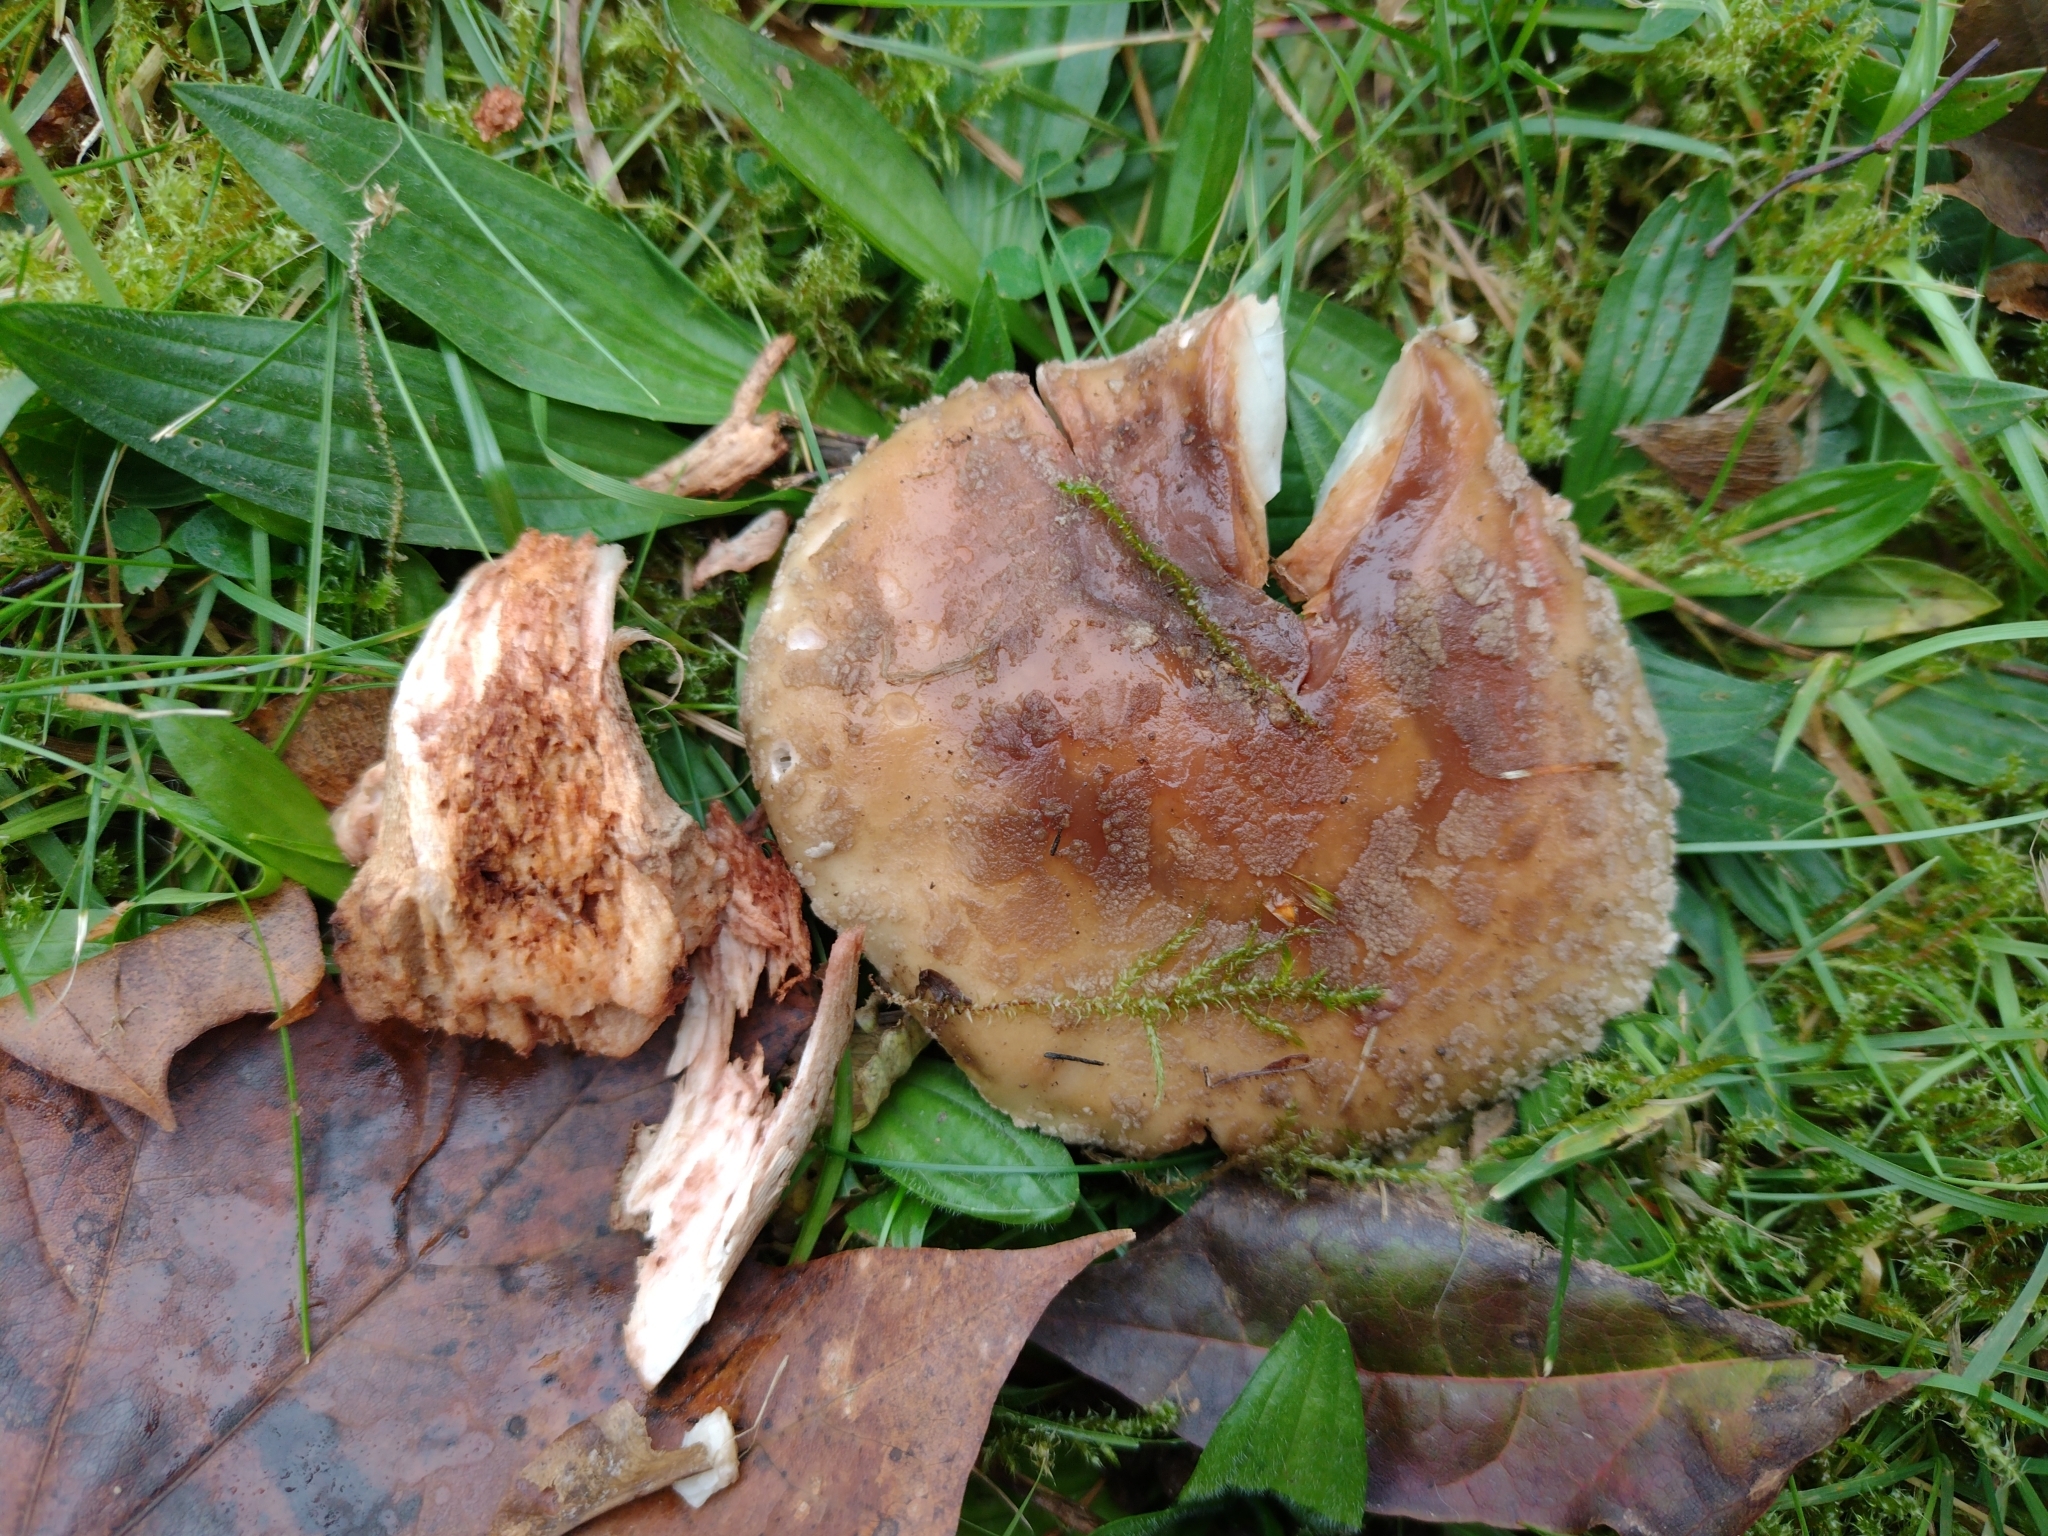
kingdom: Fungi
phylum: Basidiomycota
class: Agaricomycetes
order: Agaricales
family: Amanitaceae
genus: Amanita
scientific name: Amanita rubescens
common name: Blusher
